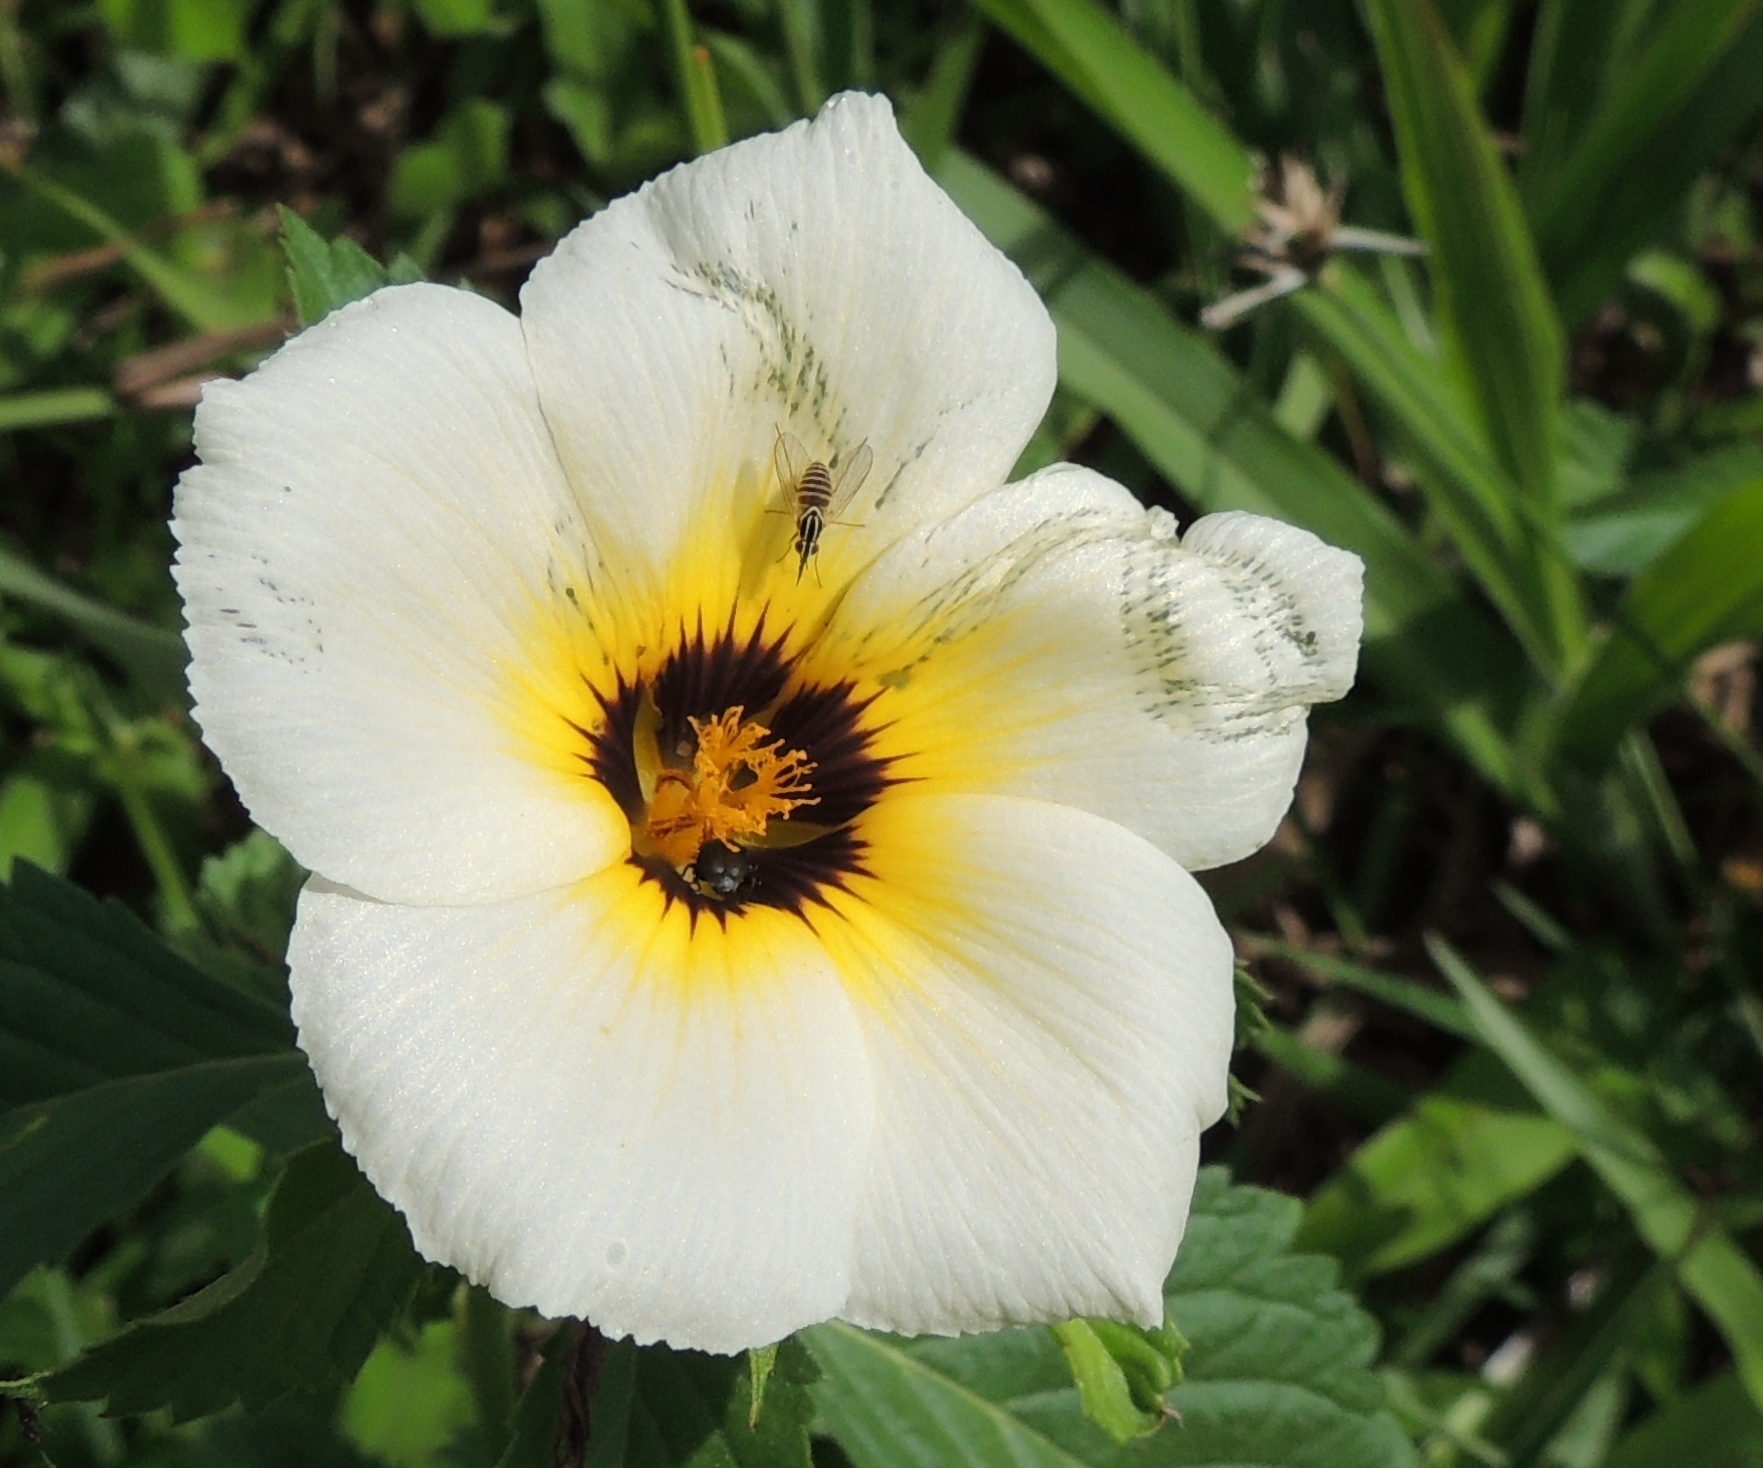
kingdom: Plantae
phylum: Tracheophyta
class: Magnoliopsida
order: Malpighiales
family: Turneraceae
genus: Turnera
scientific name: Turnera subulata
